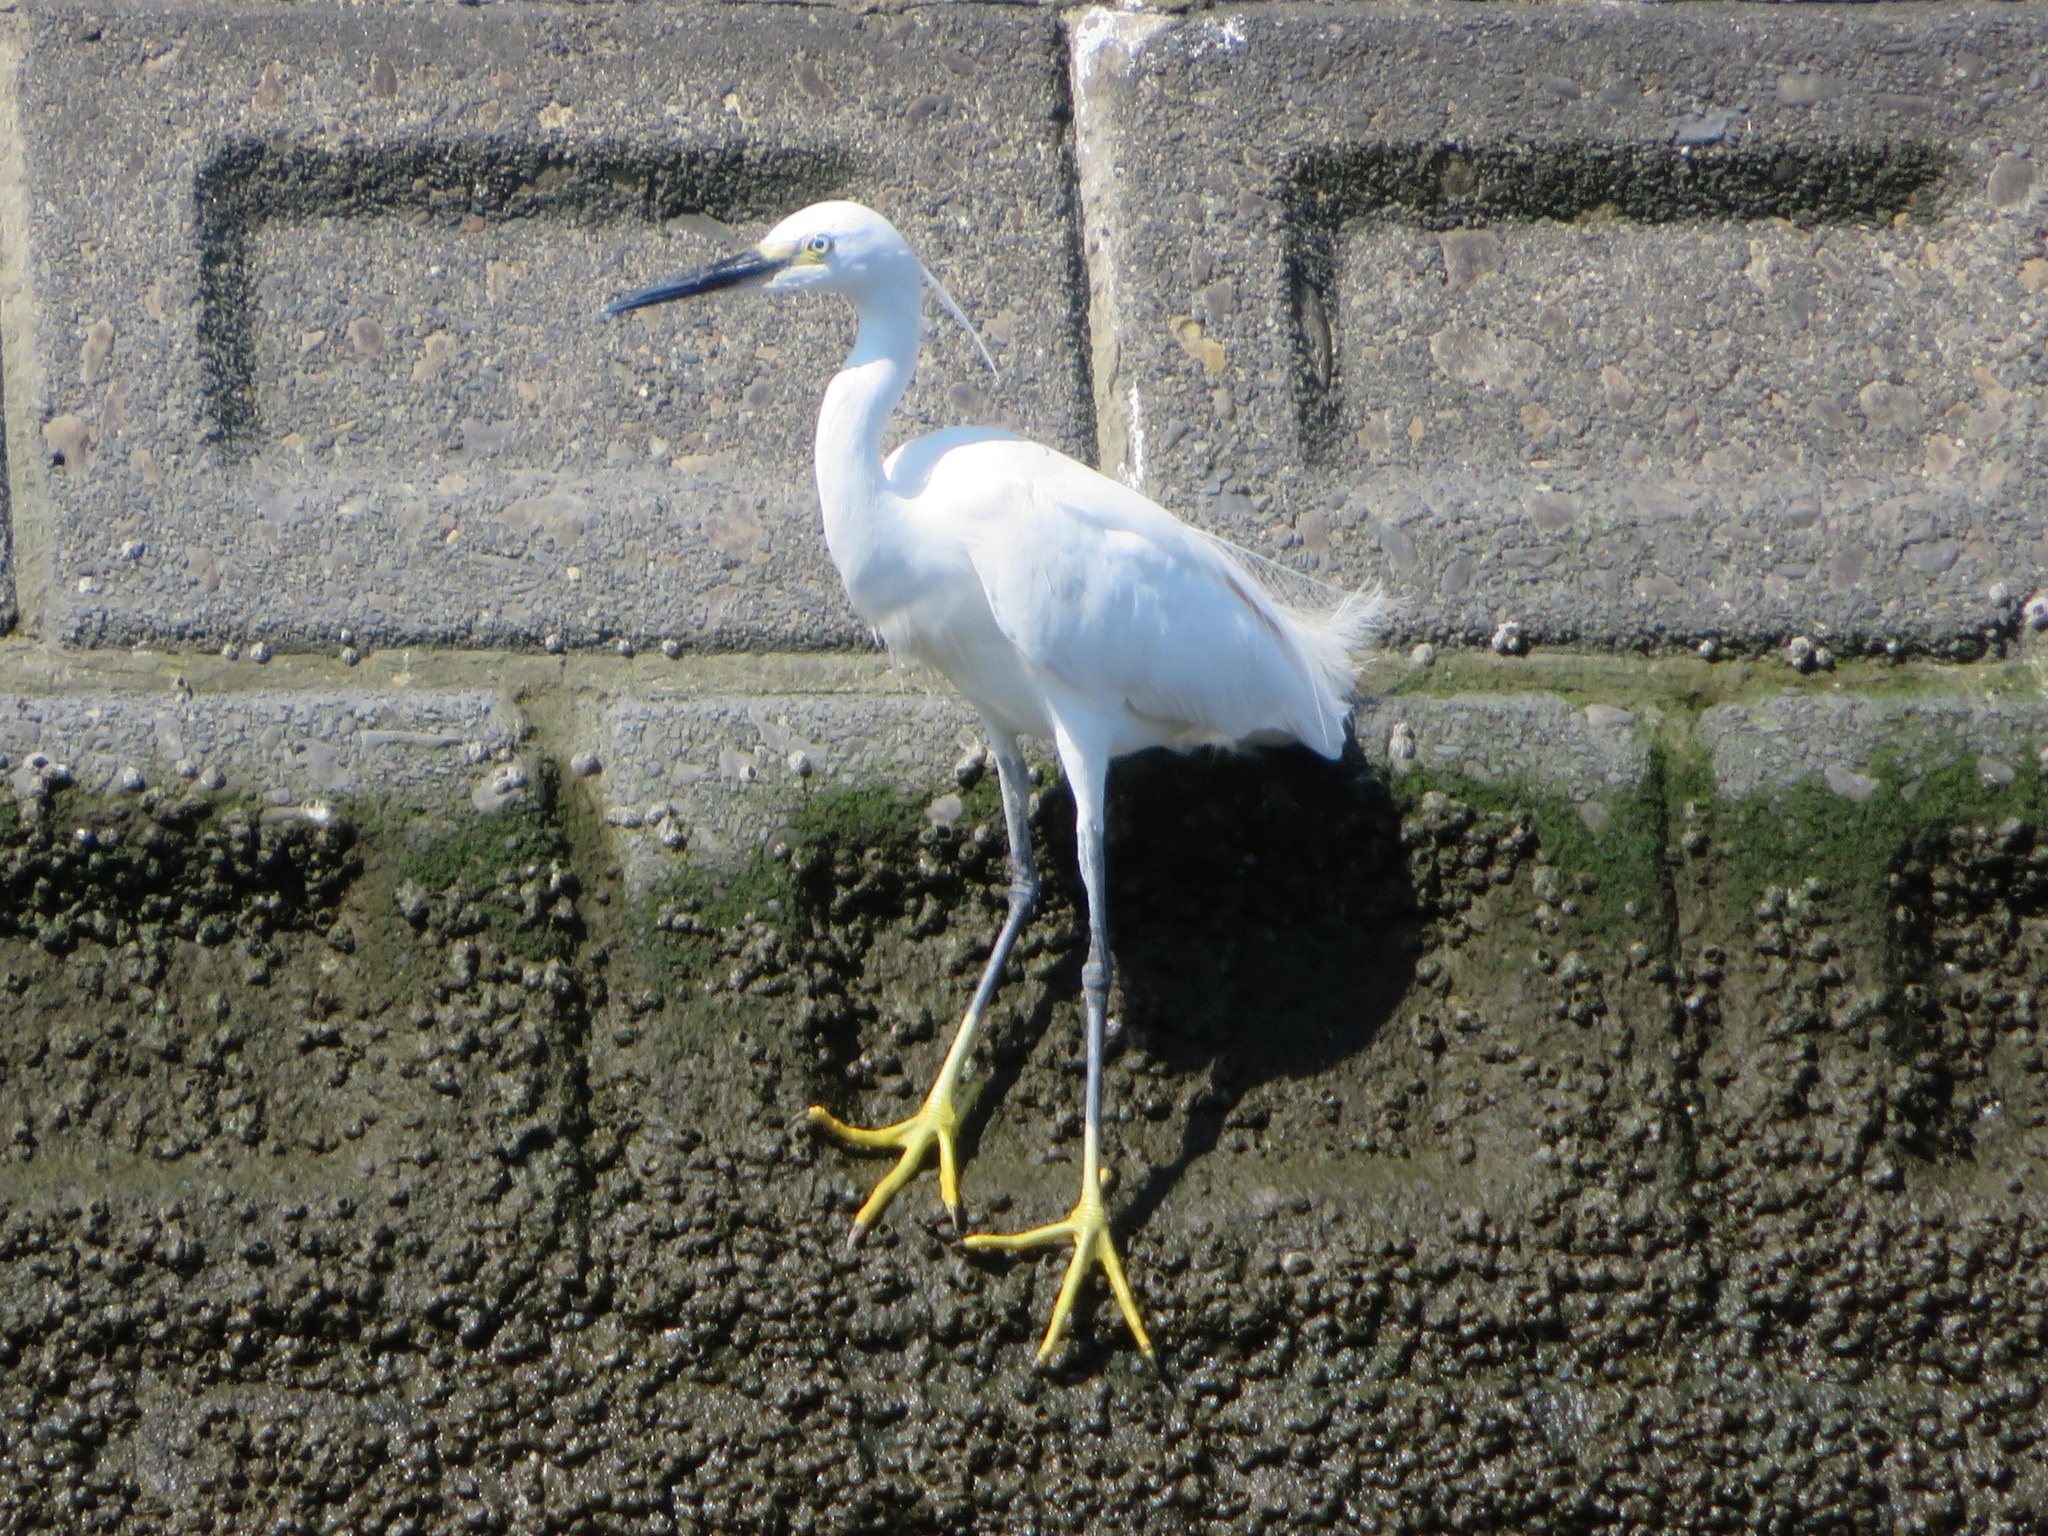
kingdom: Animalia
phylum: Chordata
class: Aves
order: Pelecaniformes
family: Ardeidae
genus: Egretta
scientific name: Egretta garzetta
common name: Little egret
